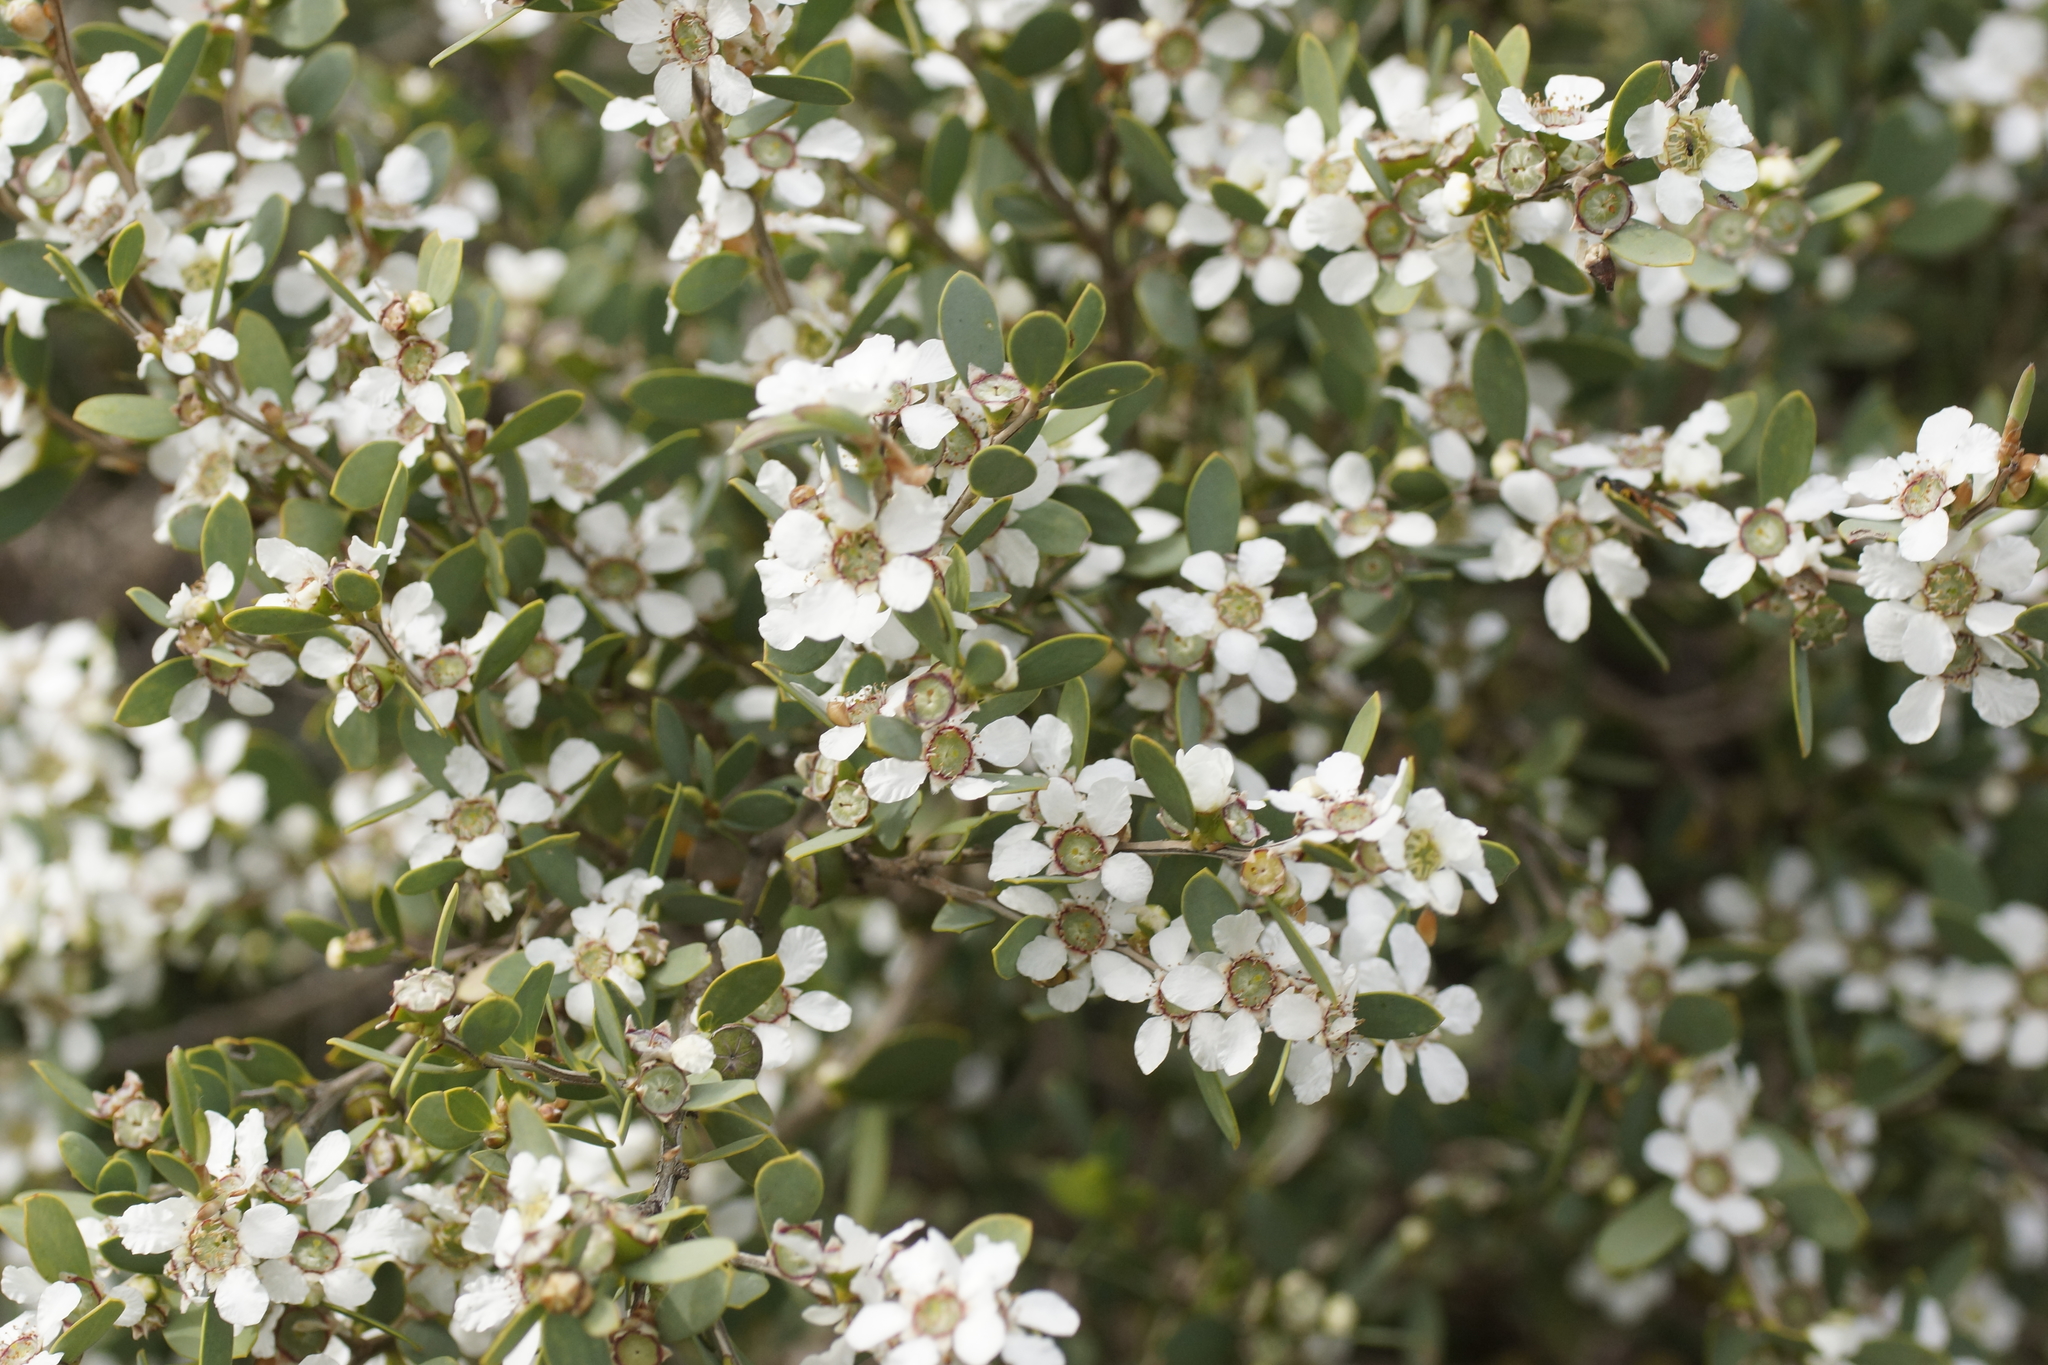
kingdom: Plantae
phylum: Tracheophyta
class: Magnoliopsida
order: Myrtales
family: Myrtaceae
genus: Leptospermum
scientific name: Leptospermum laevigatum
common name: Australian teatree
